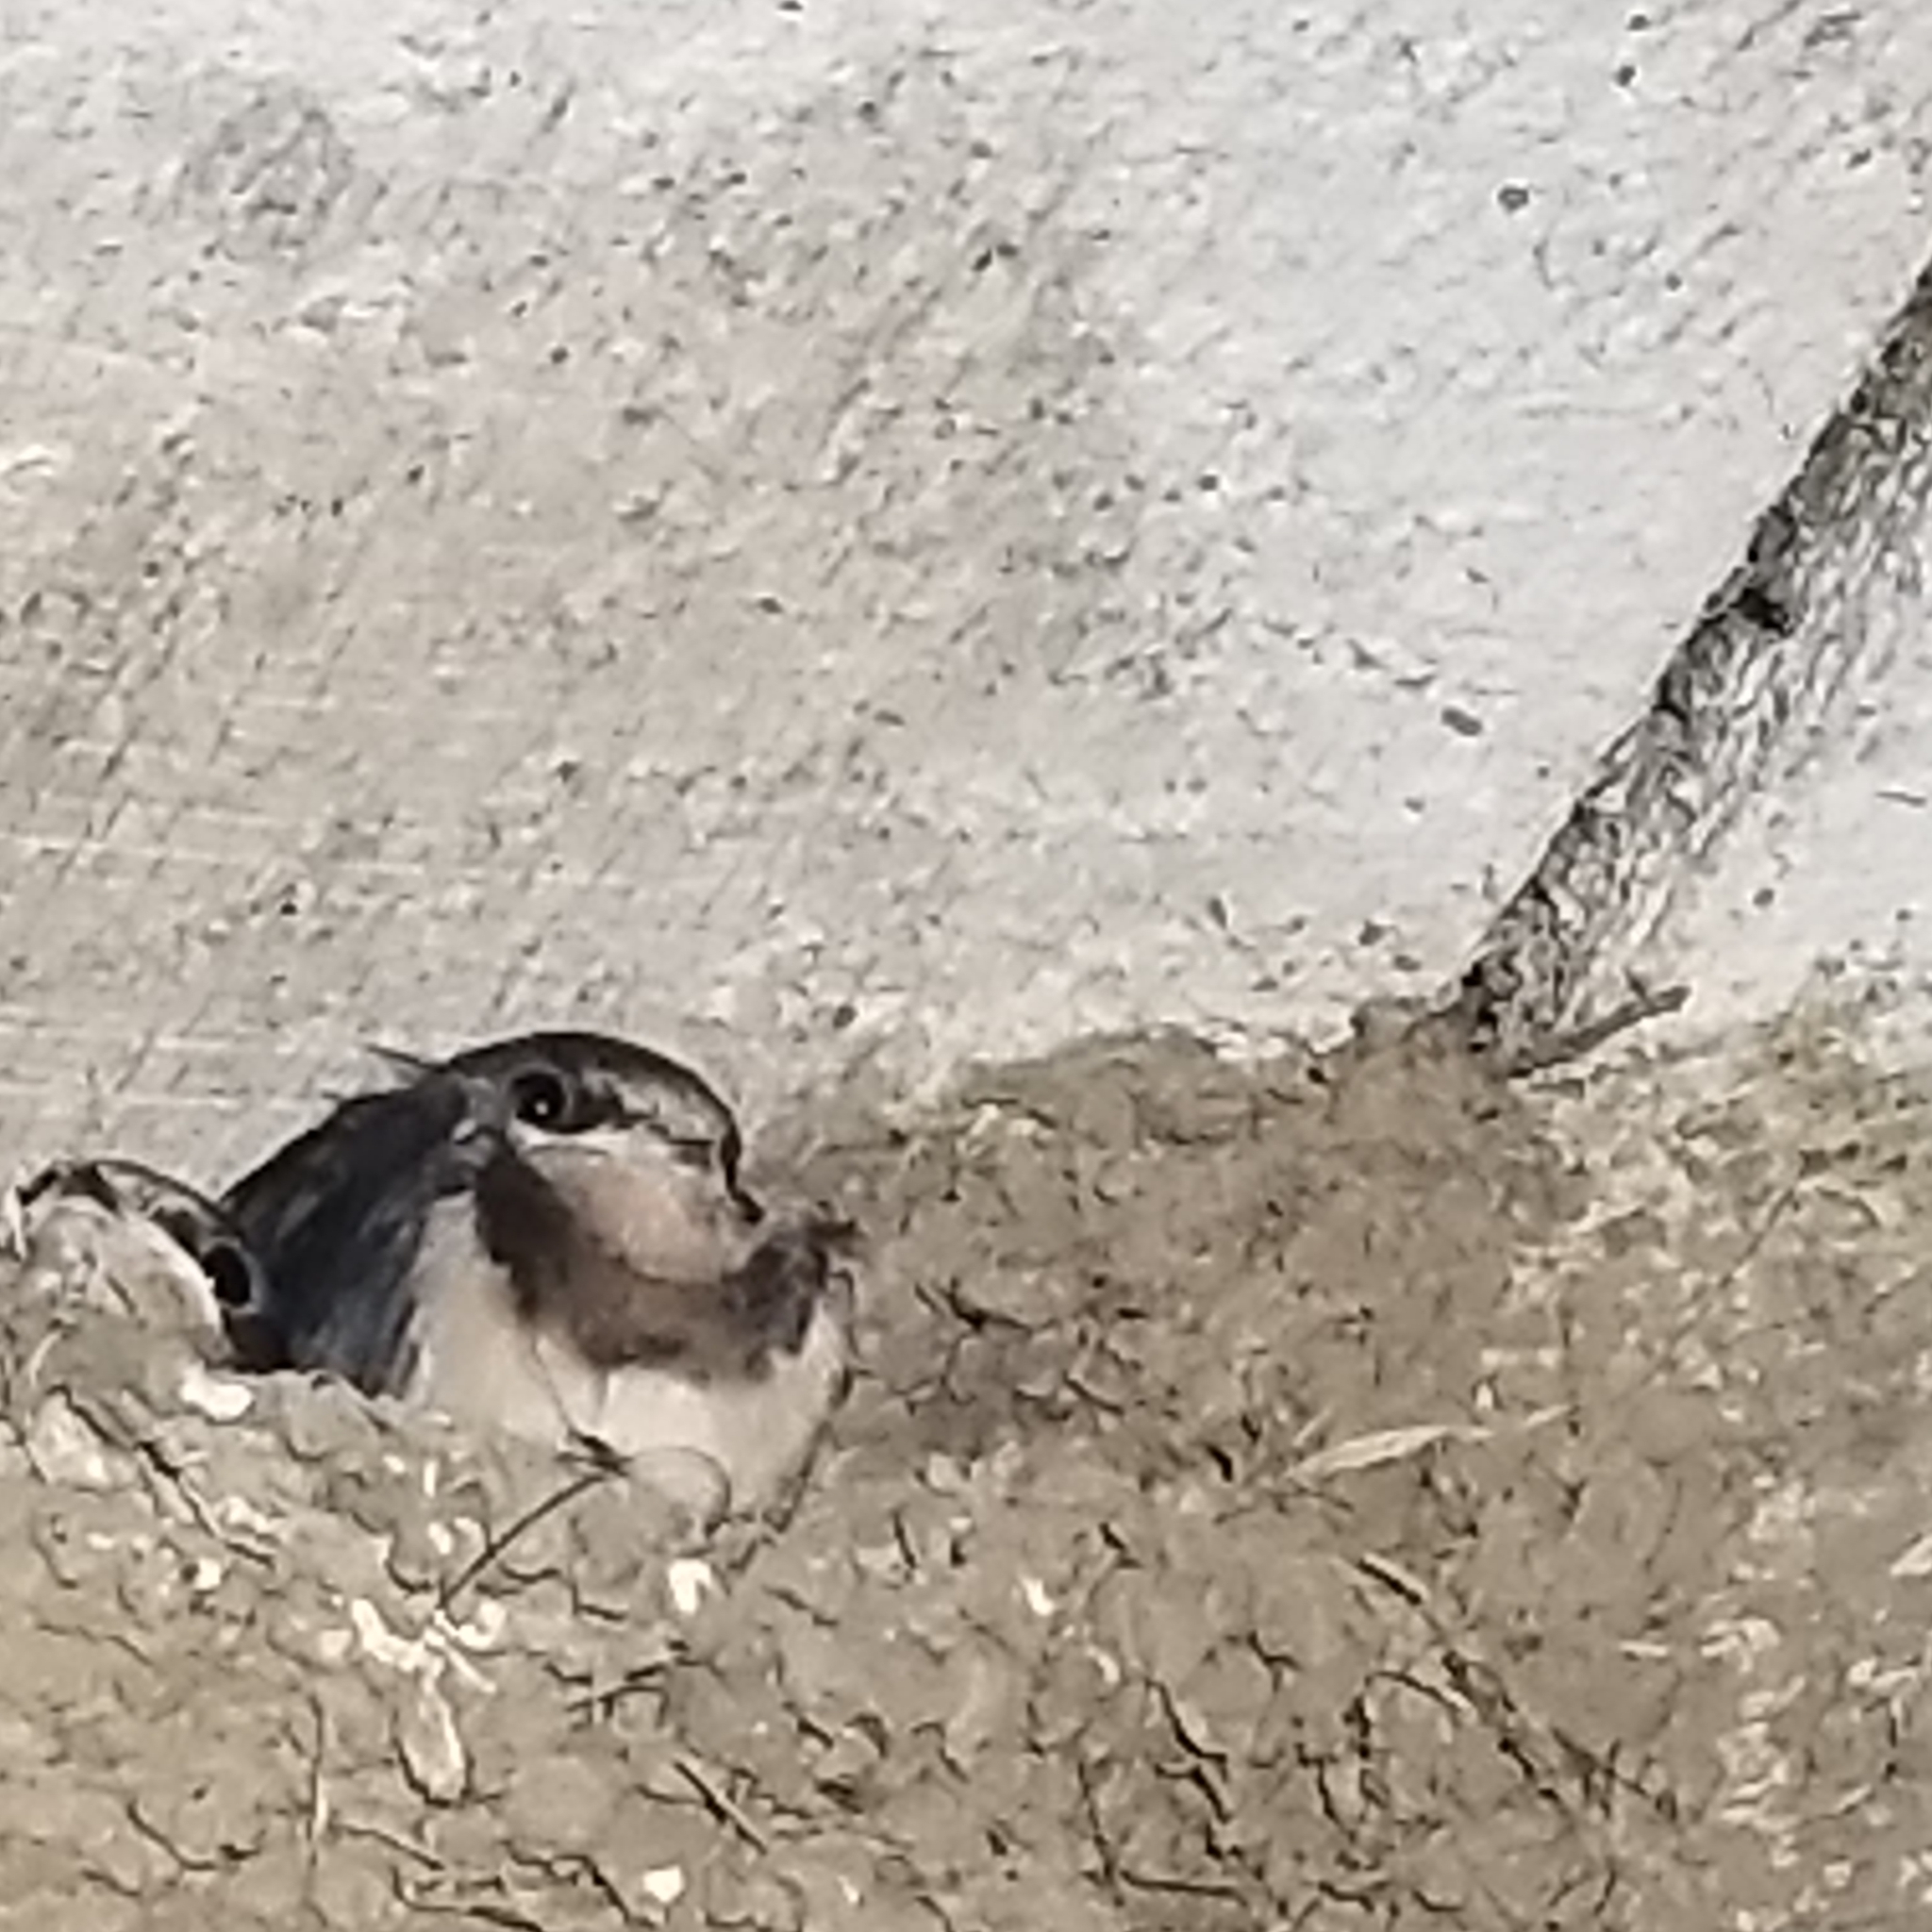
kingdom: Animalia
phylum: Chordata
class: Aves
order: Passeriformes
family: Hirundinidae
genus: Hirundo
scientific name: Hirundo rustica
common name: Barn swallow
